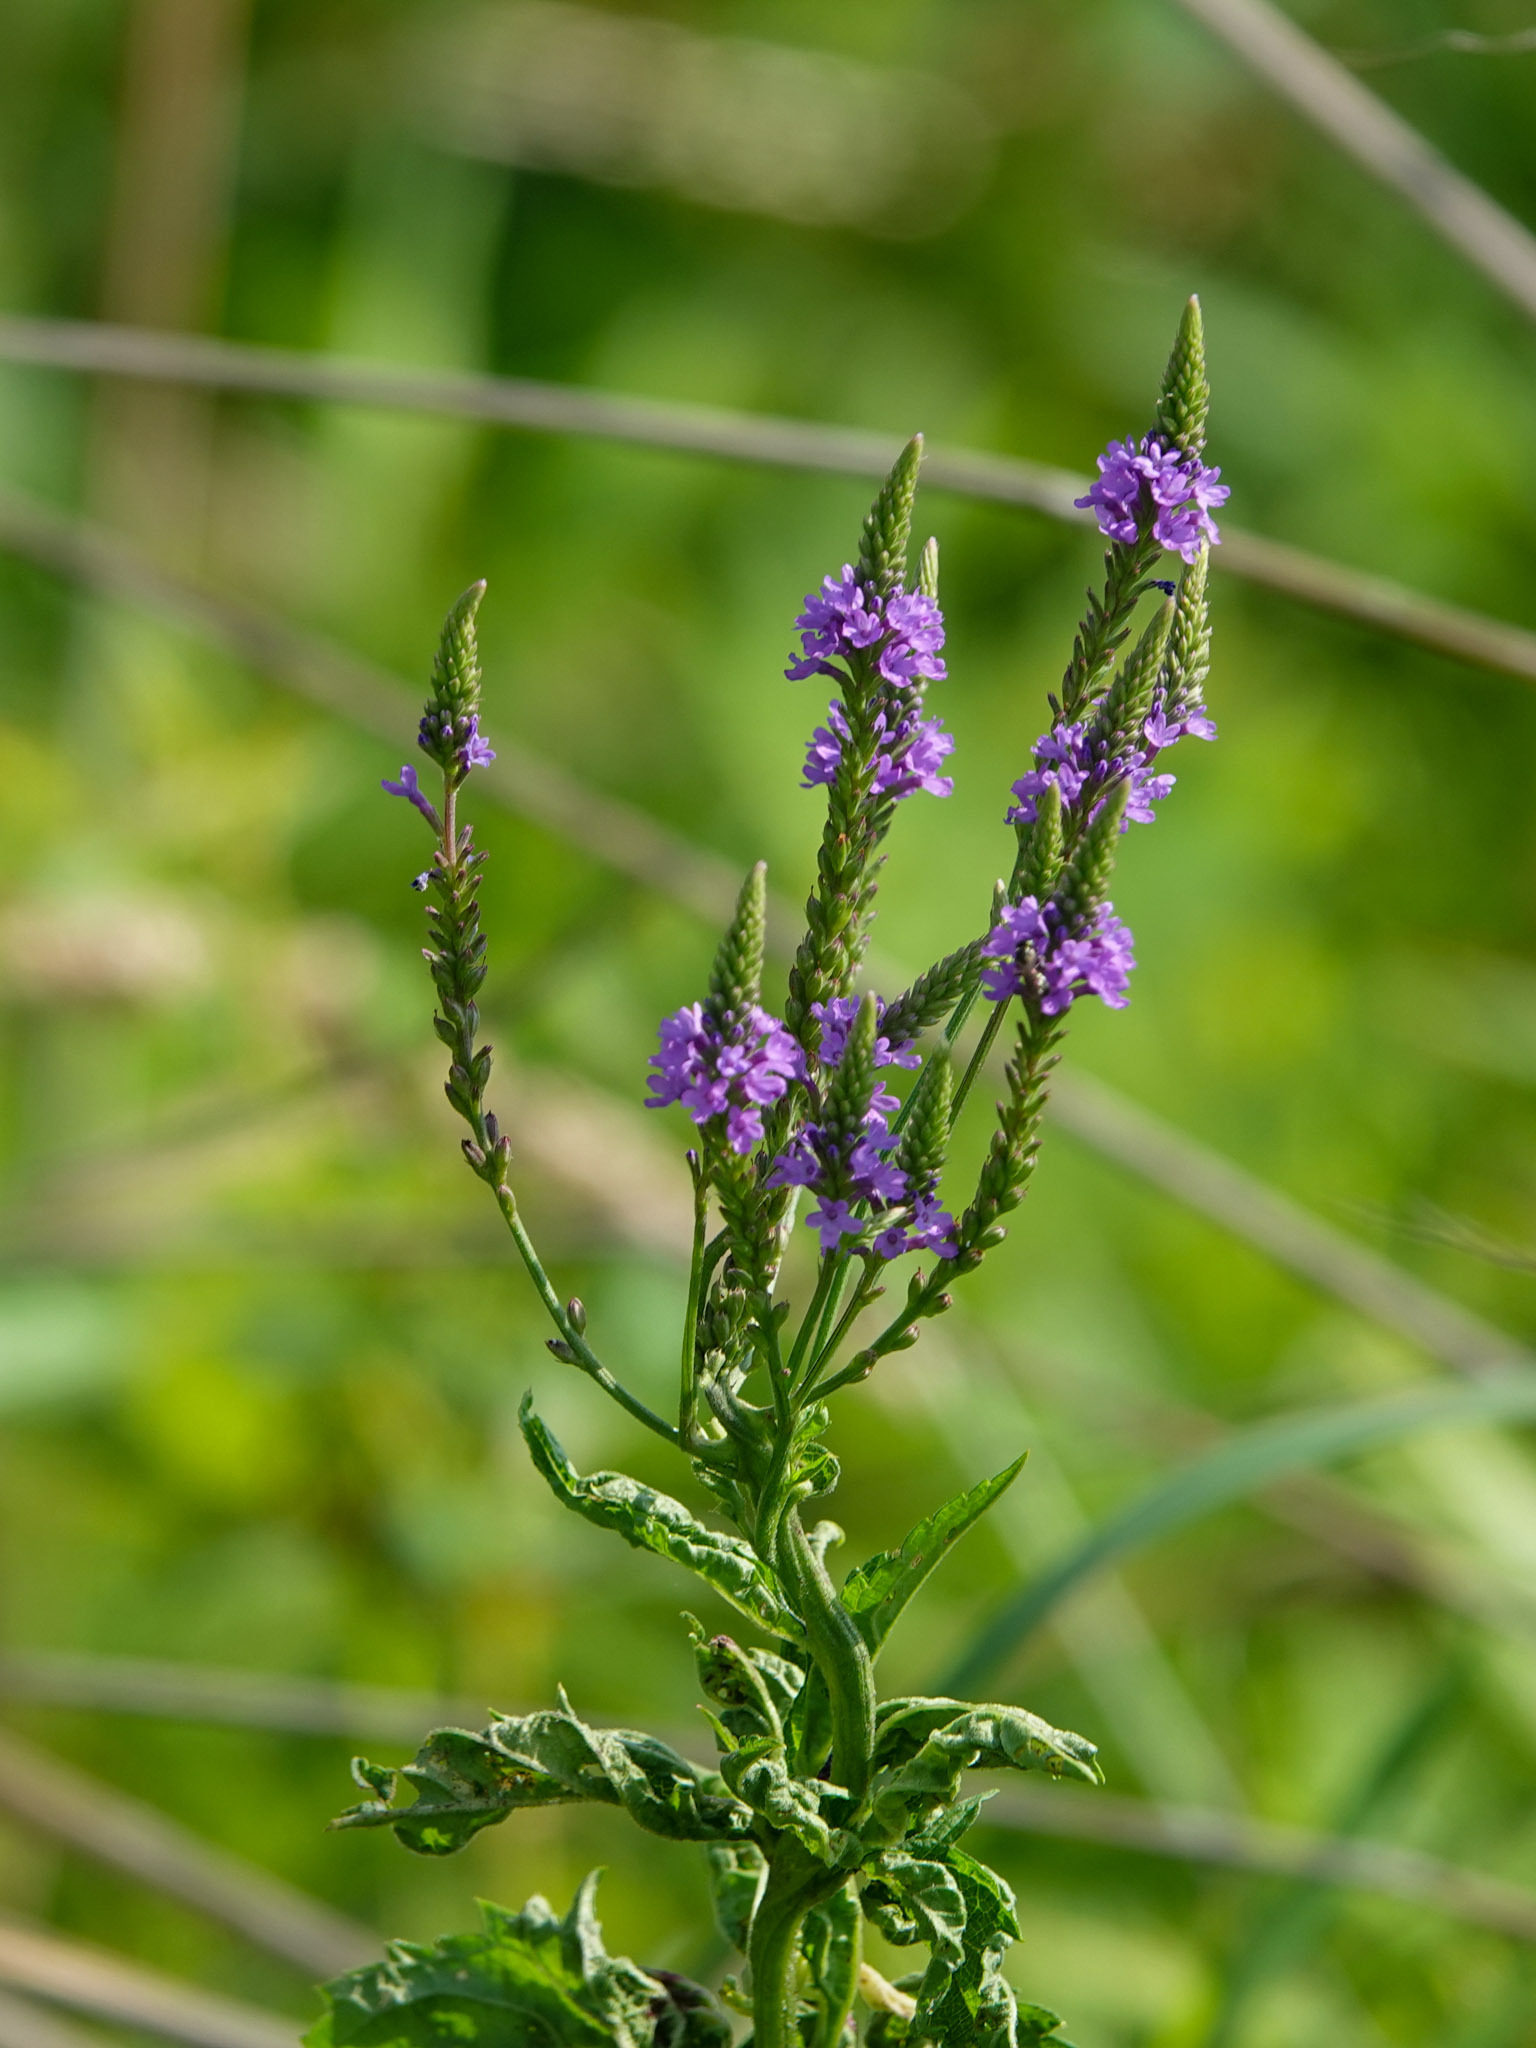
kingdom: Plantae
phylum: Tracheophyta
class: Magnoliopsida
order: Lamiales
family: Verbenaceae
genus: Verbena
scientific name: Verbena hastata
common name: American blue vervain
